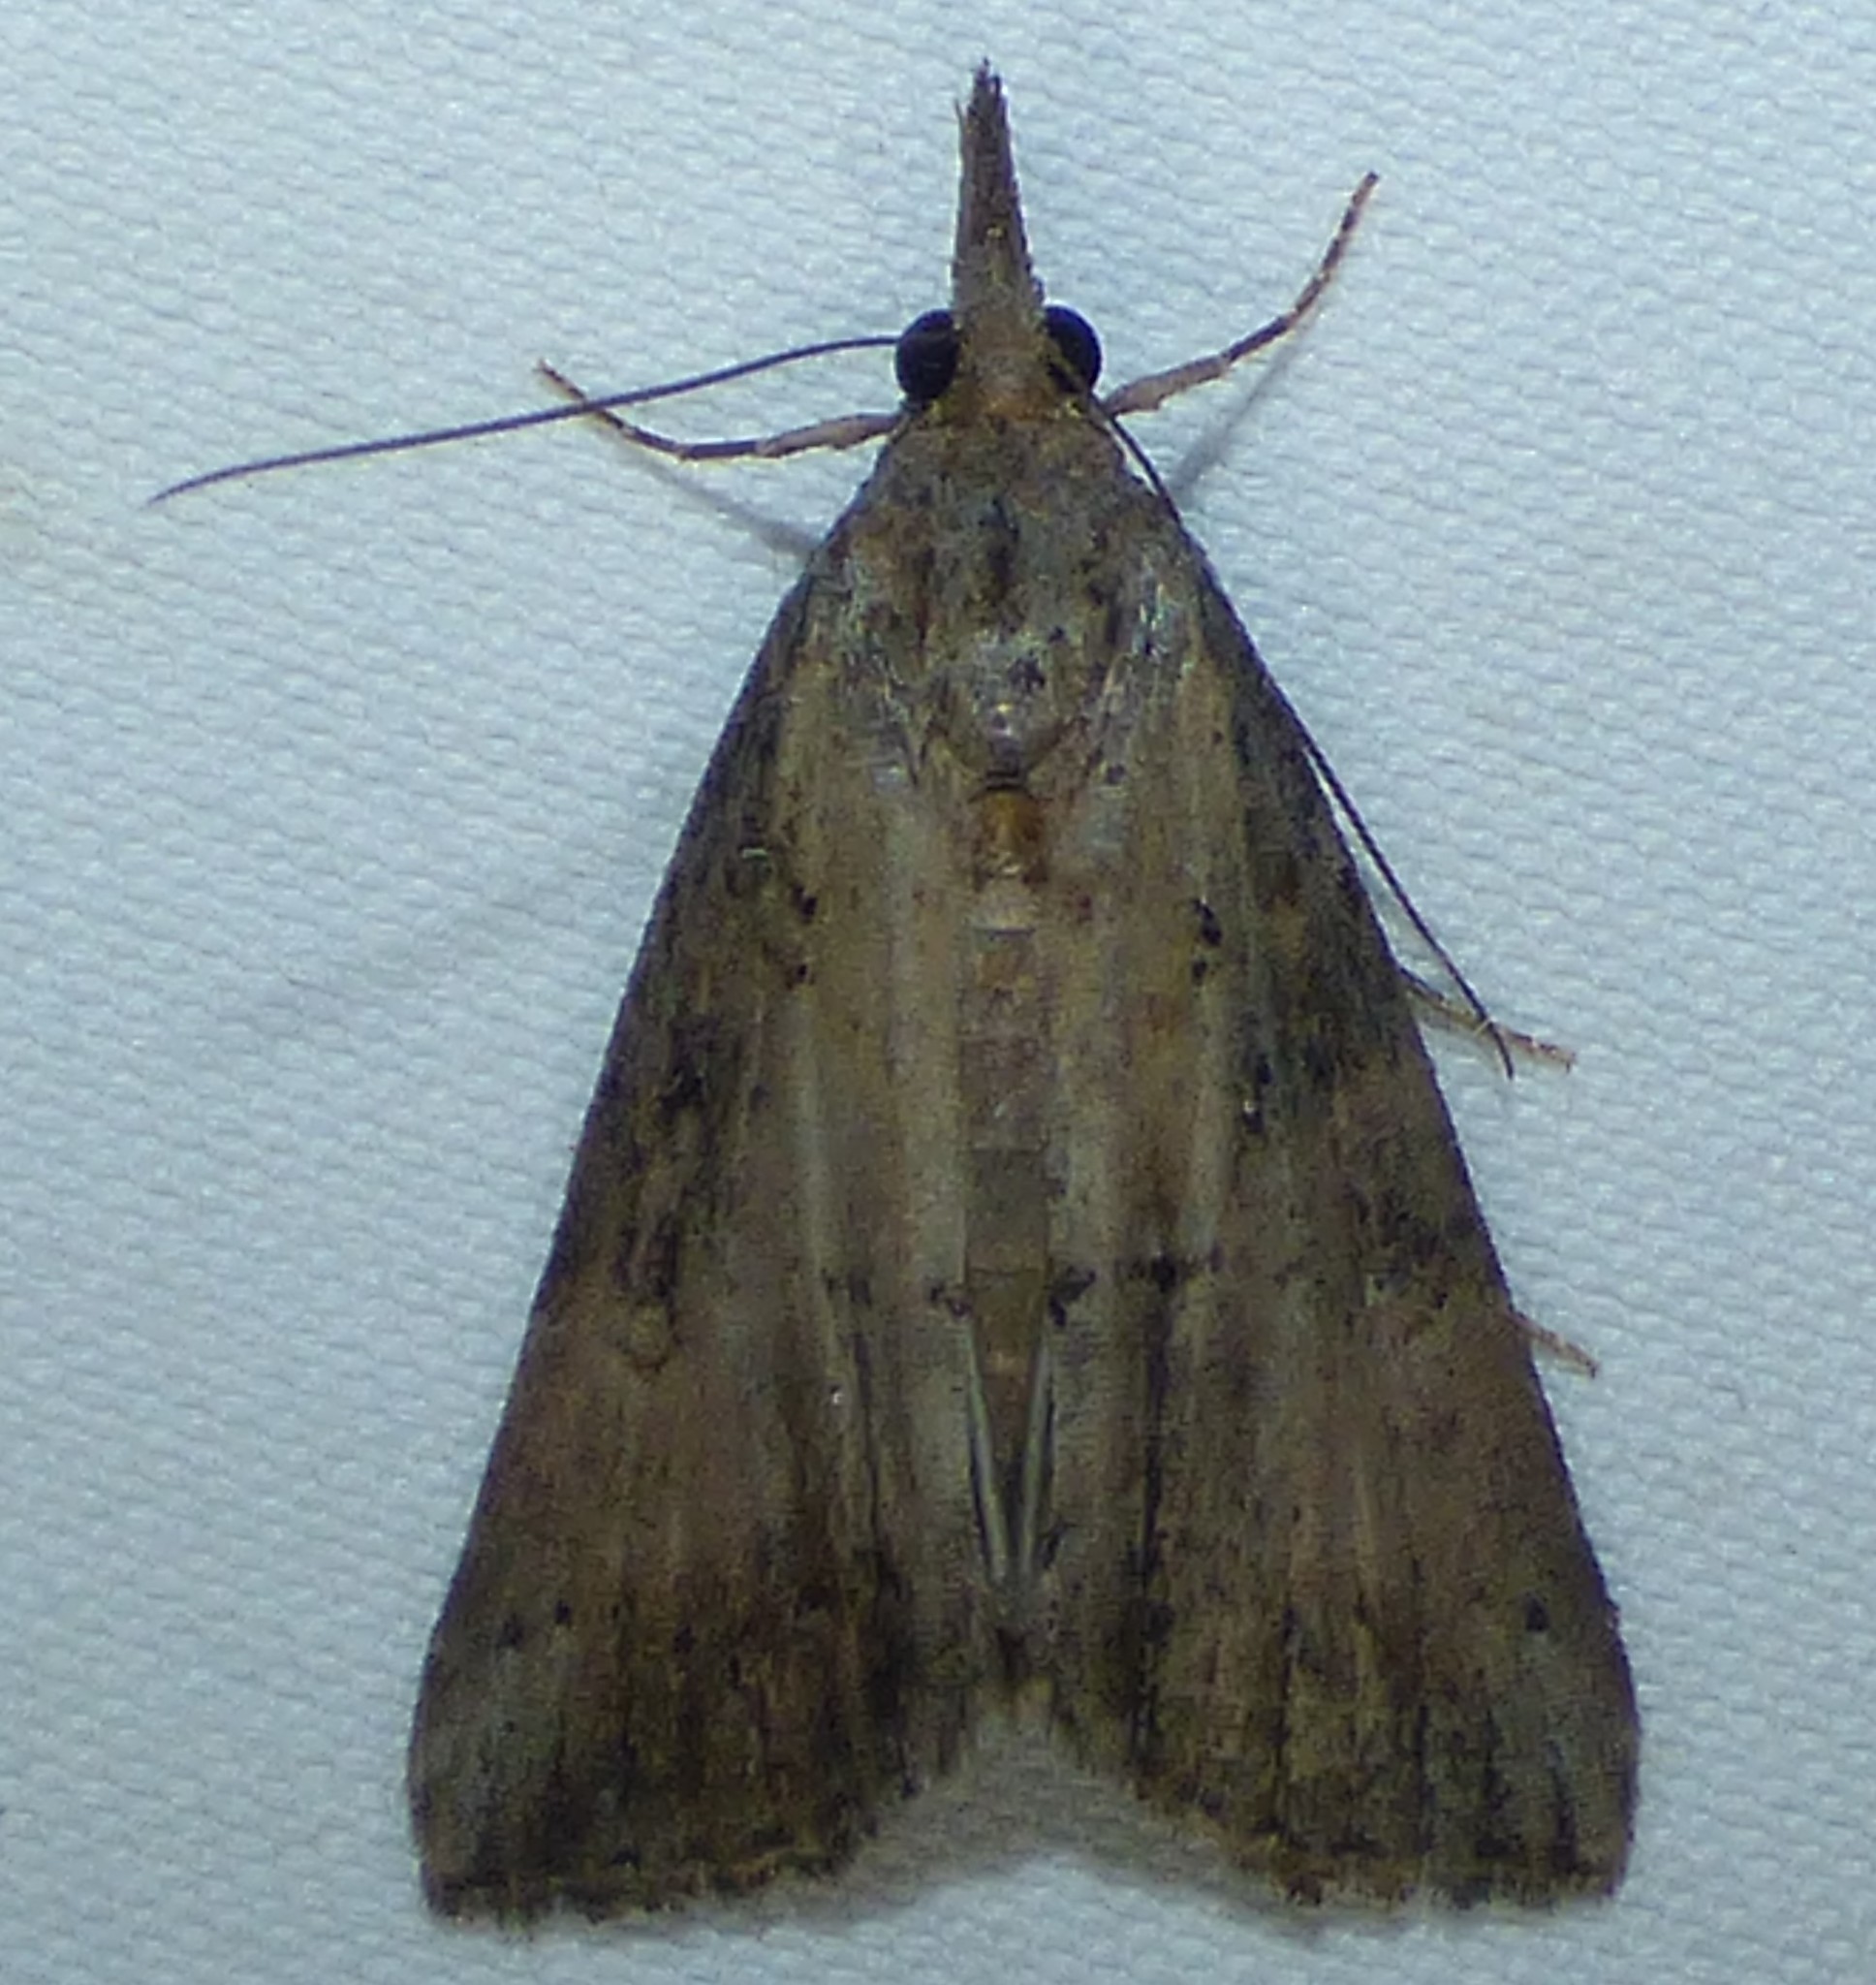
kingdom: Animalia
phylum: Arthropoda
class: Insecta
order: Lepidoptera
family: Erebidae
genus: Hypena
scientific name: Hypena scabra
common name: Green cloverworm
